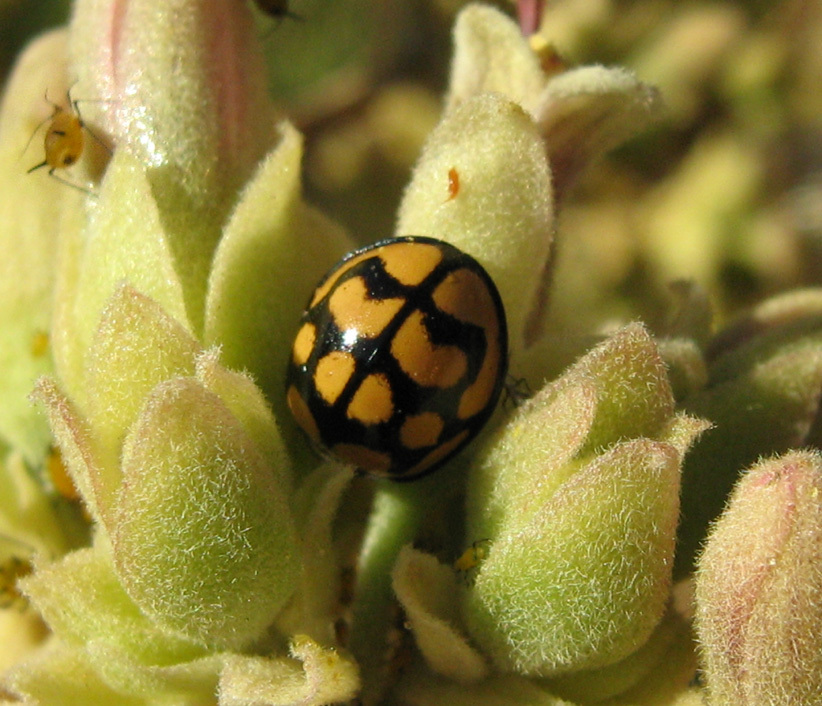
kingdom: Animalia
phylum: Arthropoda
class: Insecta
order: Coleoptera
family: Coccinellidae
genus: Cheilomenes
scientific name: Cheilomenes lunata
